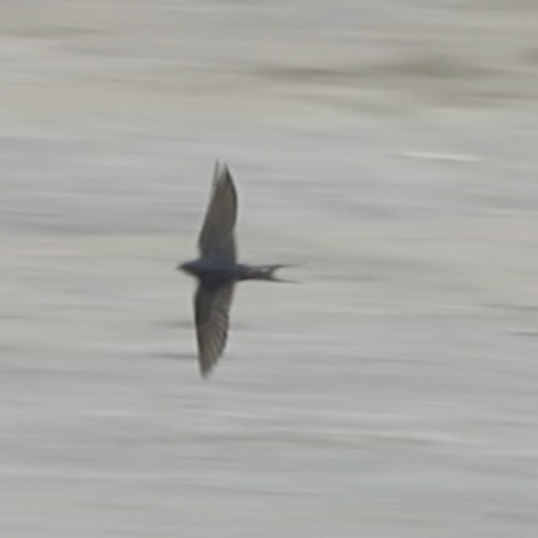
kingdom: Animalia
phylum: Chordata
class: Aves
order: Passeriformes
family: Hirundinidae
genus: Hirundo
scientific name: Hirundo rustica
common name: Barn swallow
